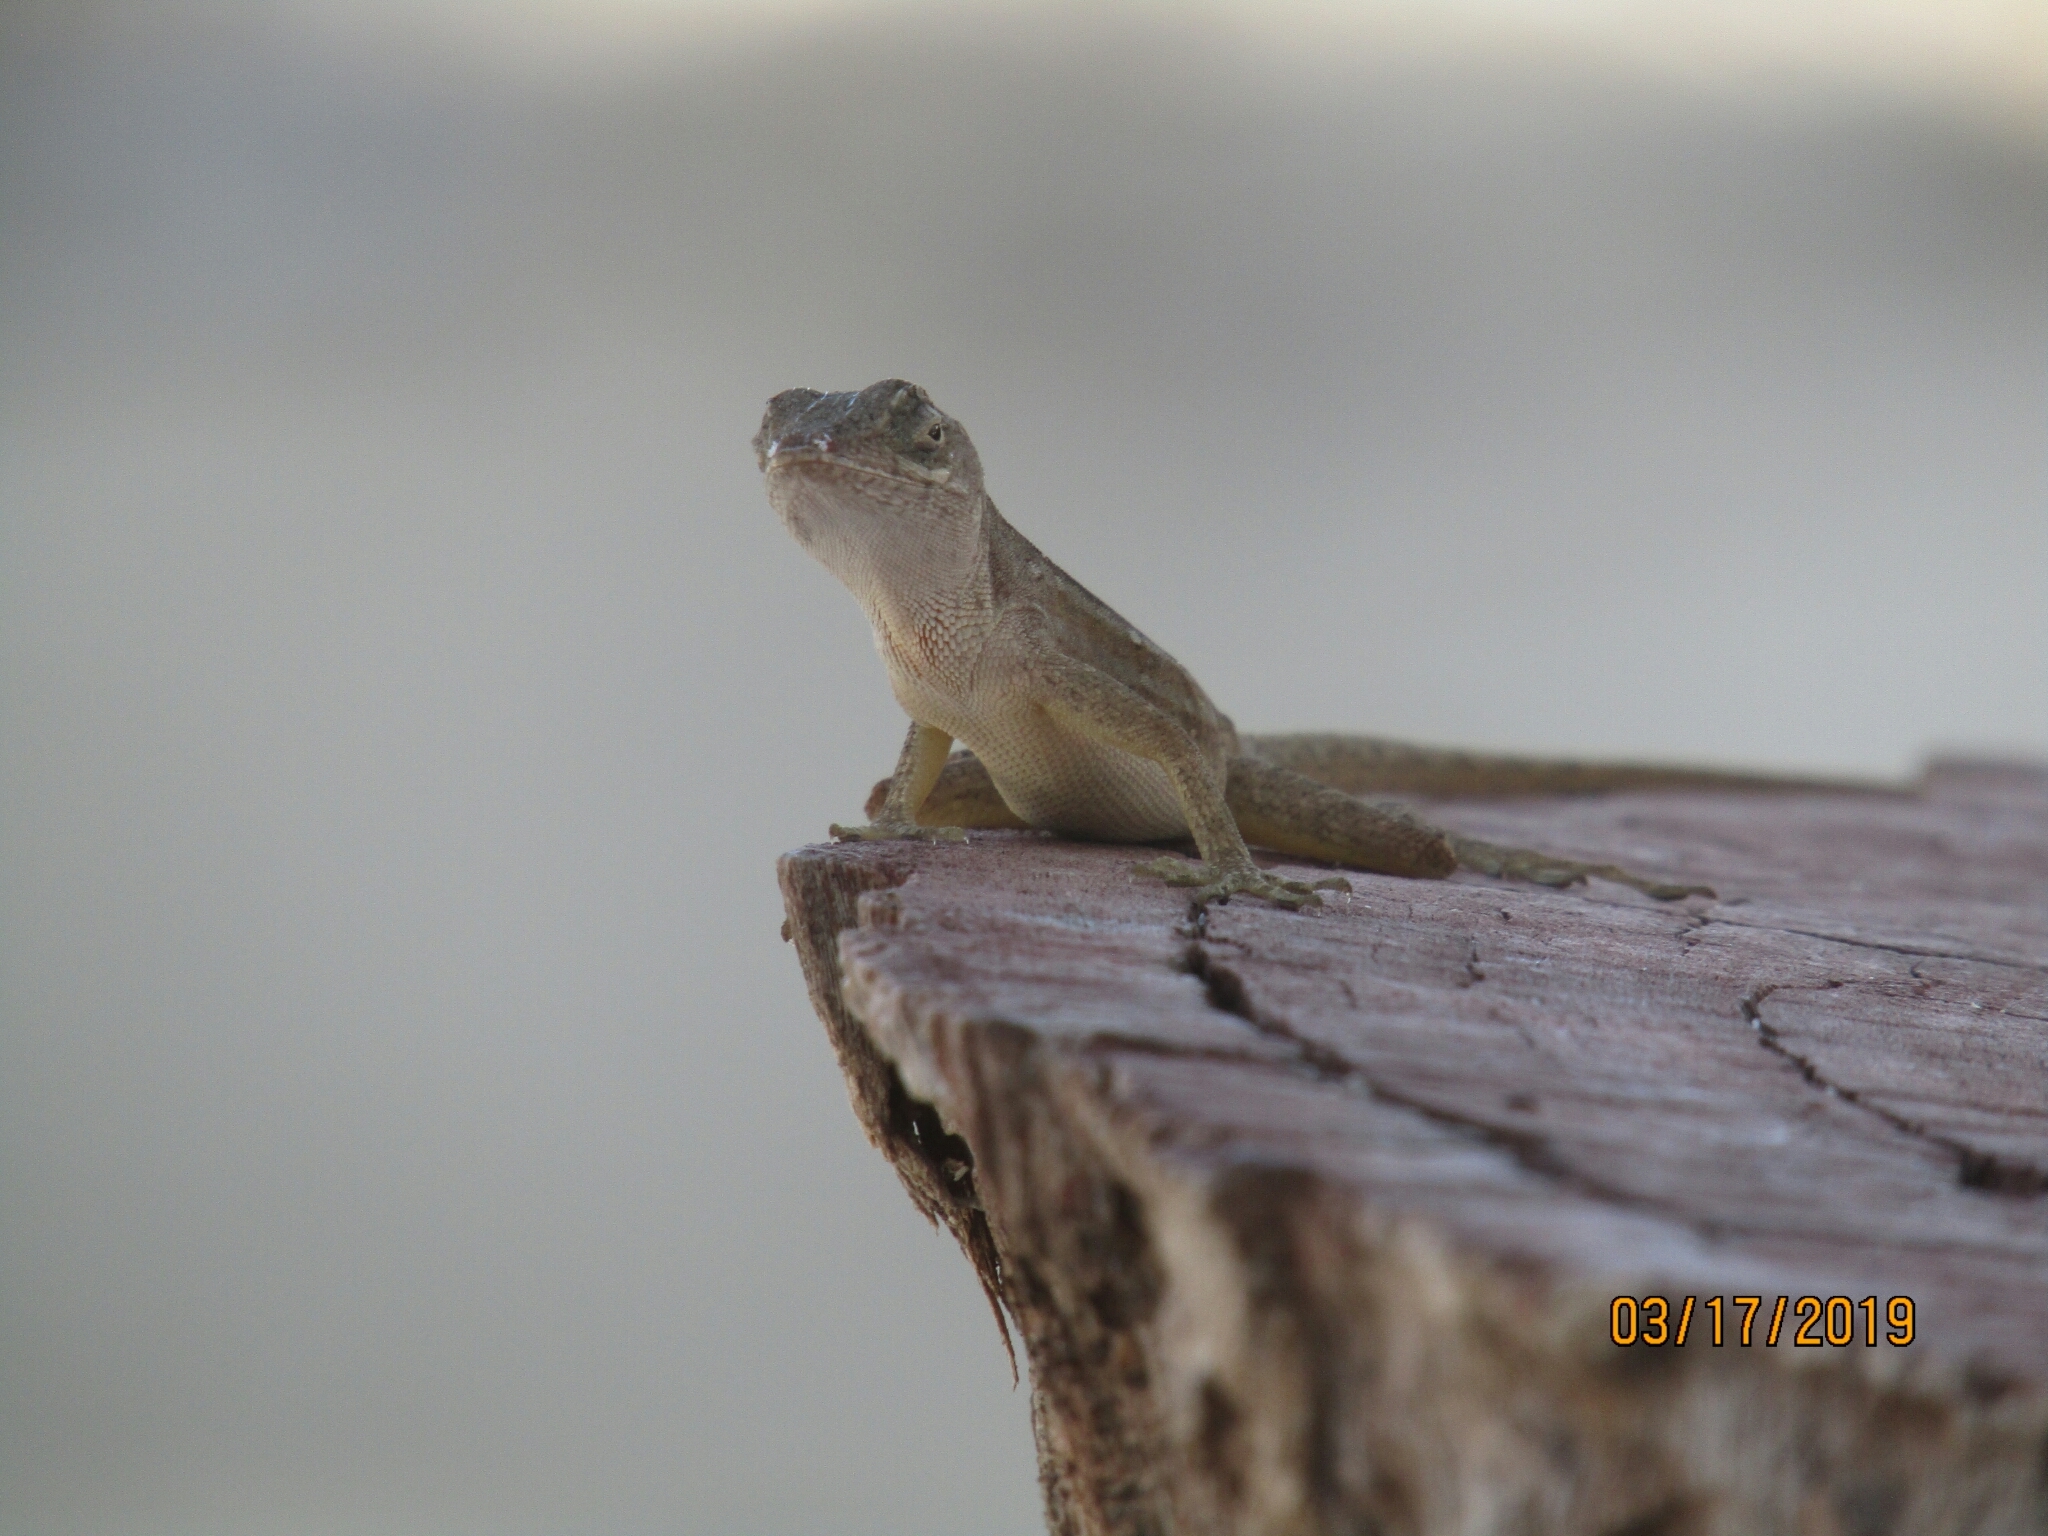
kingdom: Animalia
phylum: Chordata
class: Squamata
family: Dactyloidae
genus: Anolis
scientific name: Anolis sagrei
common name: Brown anole
